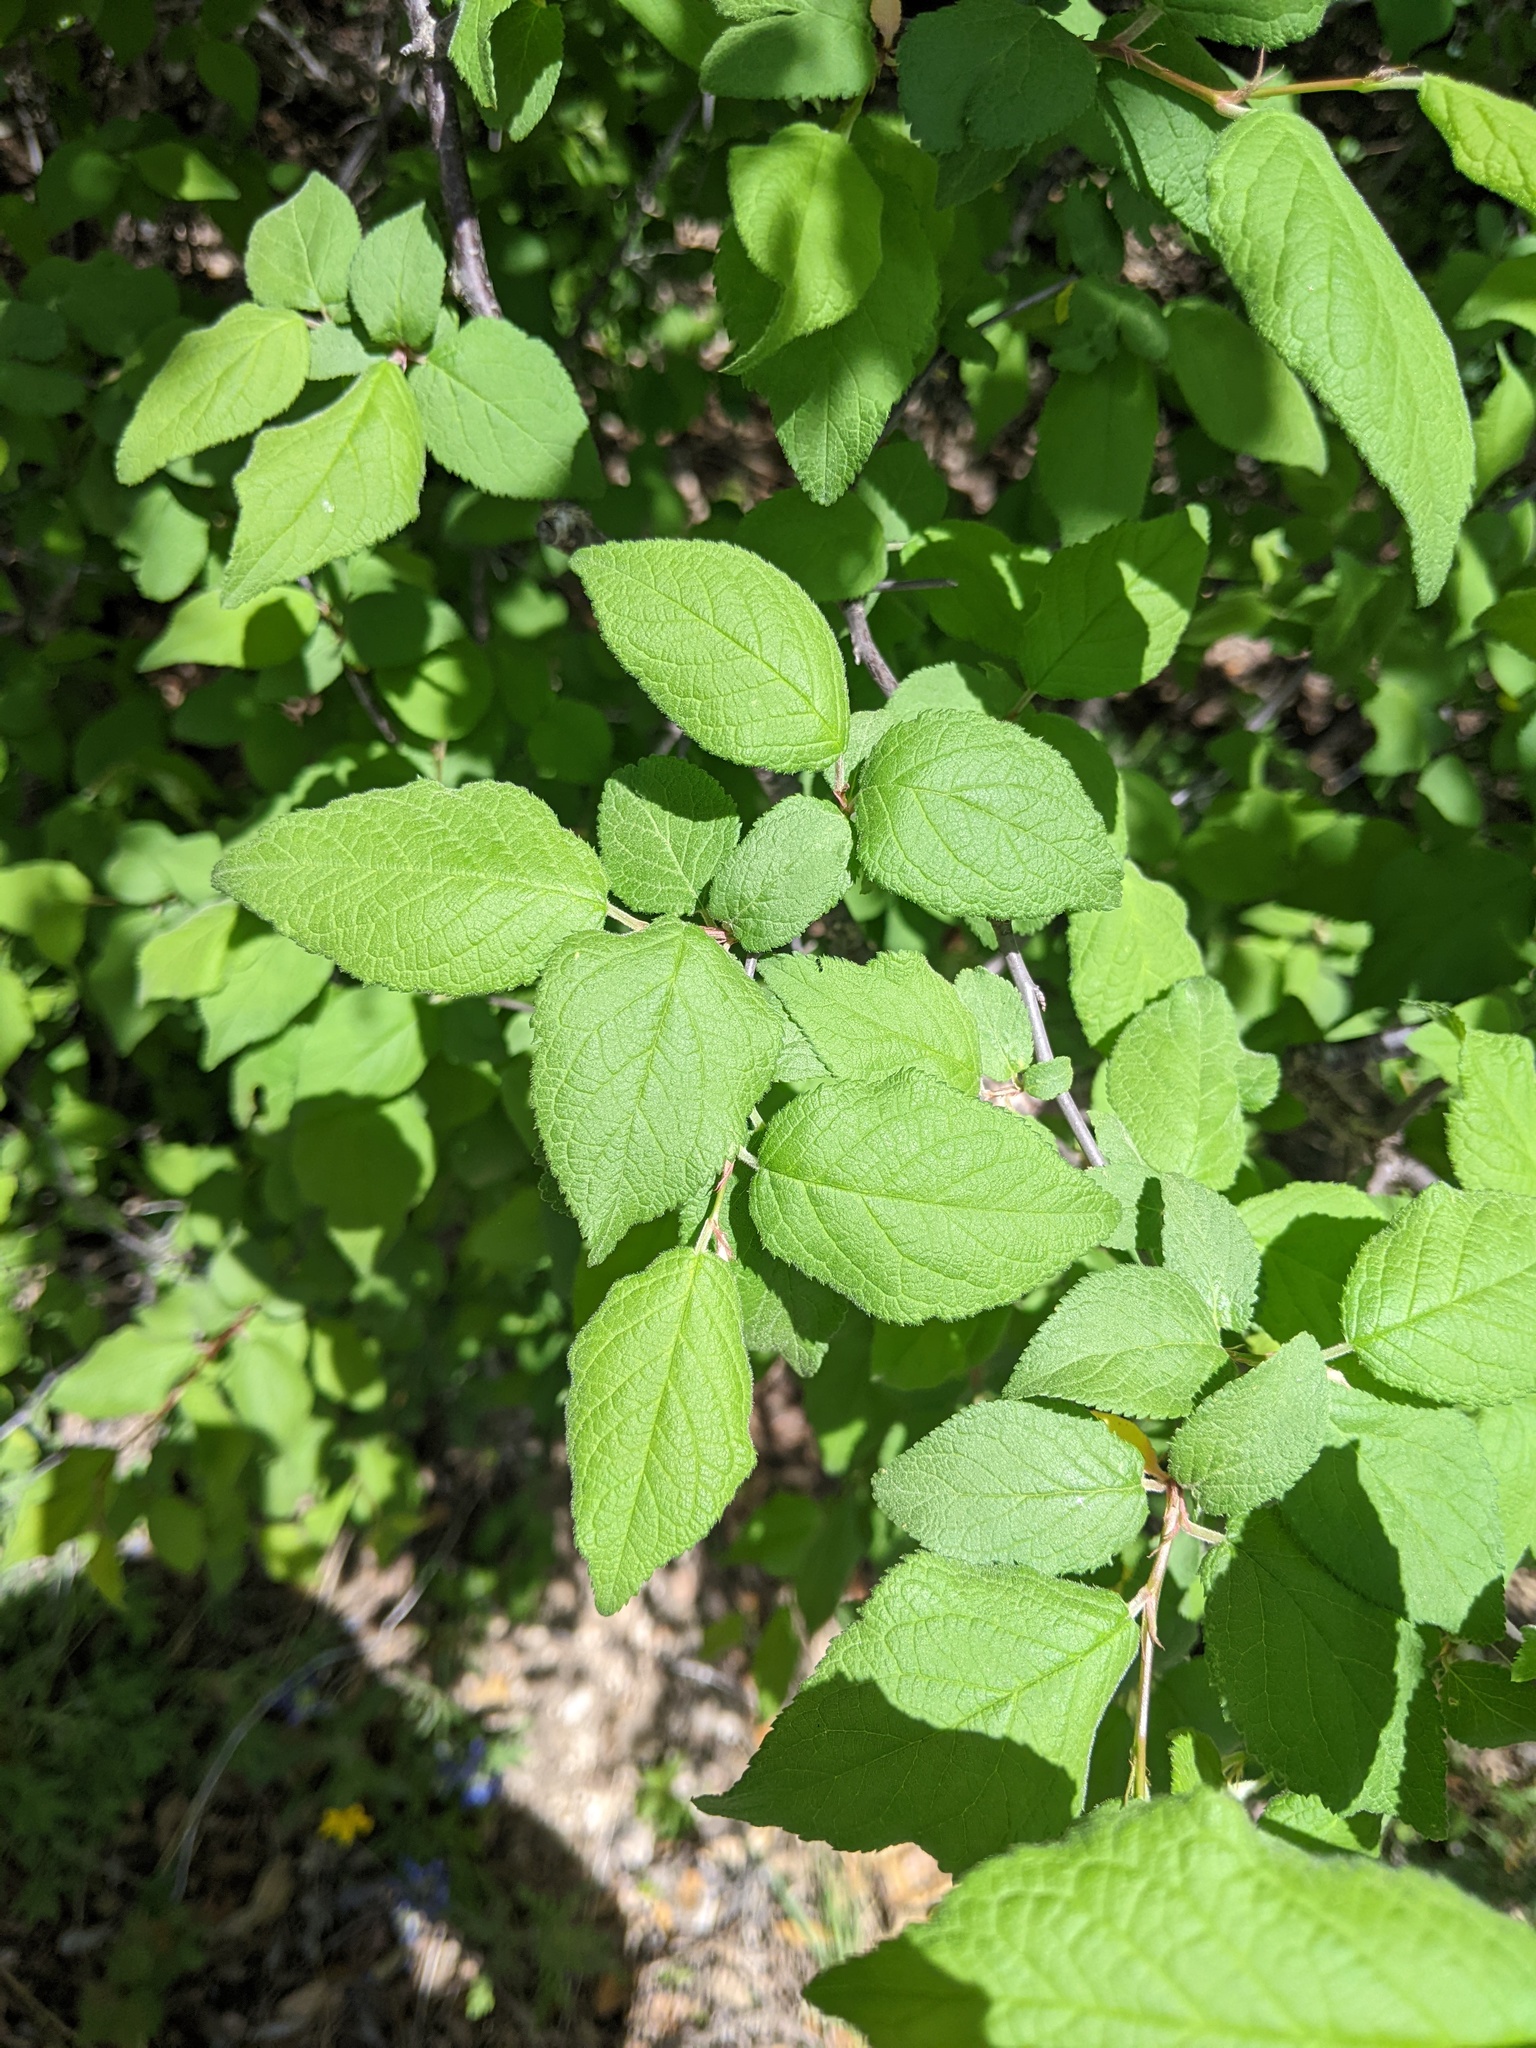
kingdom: Plantae
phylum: Tracheophyta
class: Magnoliopsida
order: Rosales
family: Rosaceae
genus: Prunus
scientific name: Prunus mexicana
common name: Mexican plum
